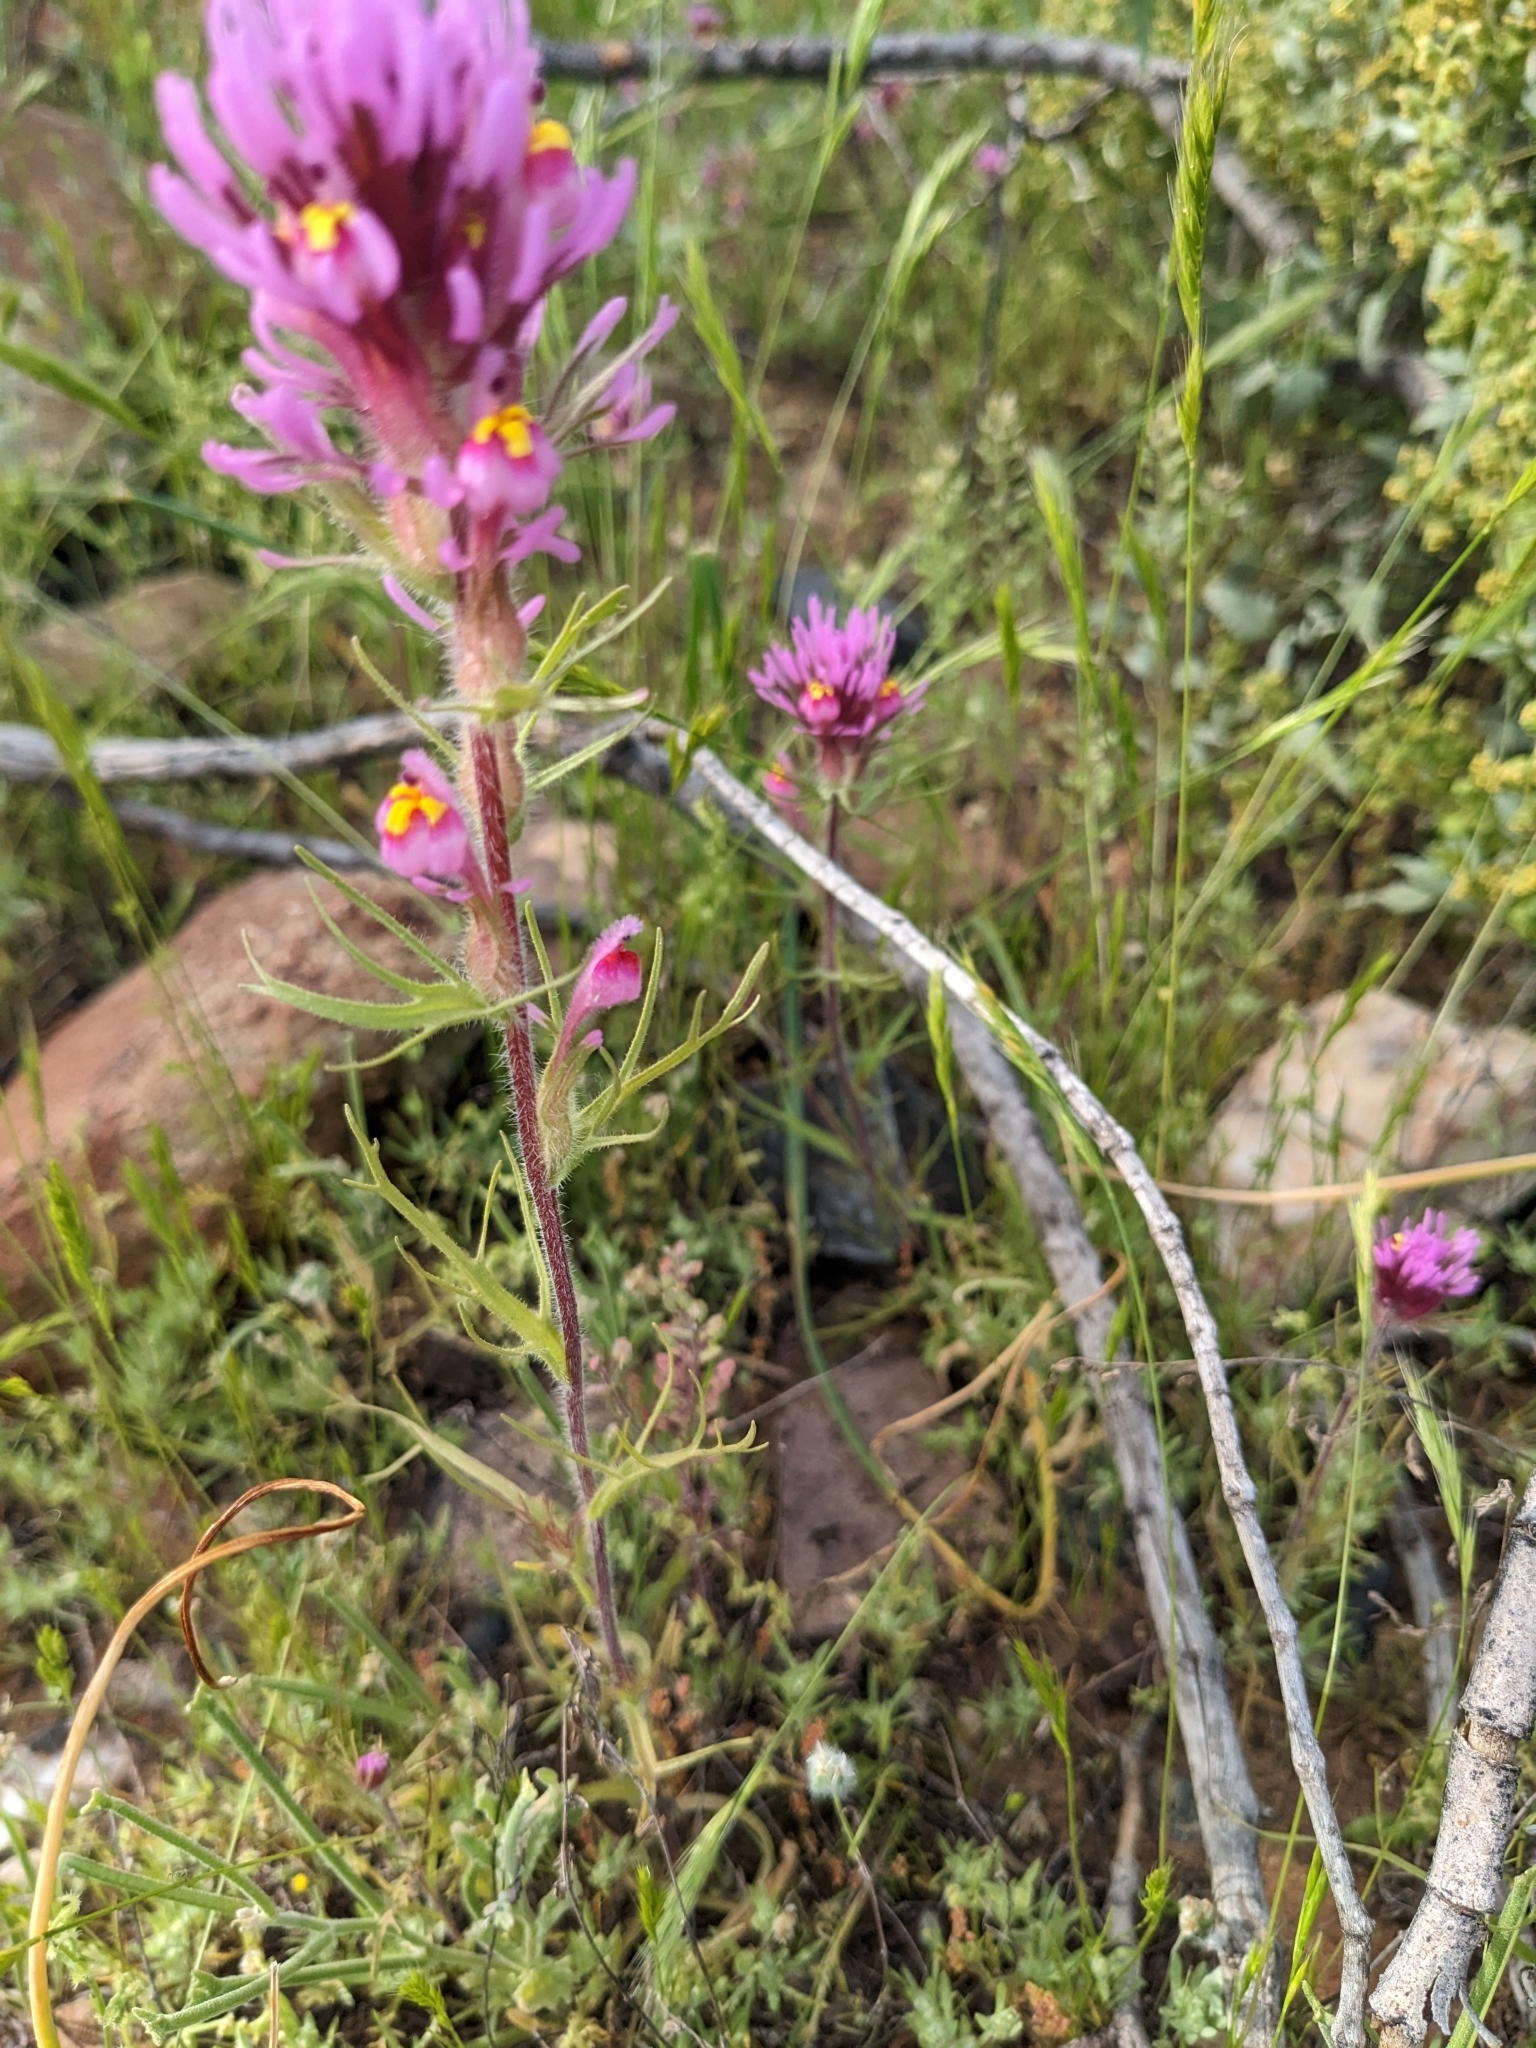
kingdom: Plantae
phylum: Tracheophyta
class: Magnoliopsida
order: Lamiales
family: Orobanchaceae
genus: Castilleja
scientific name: Castilleja exserta
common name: Purple owl-clover
